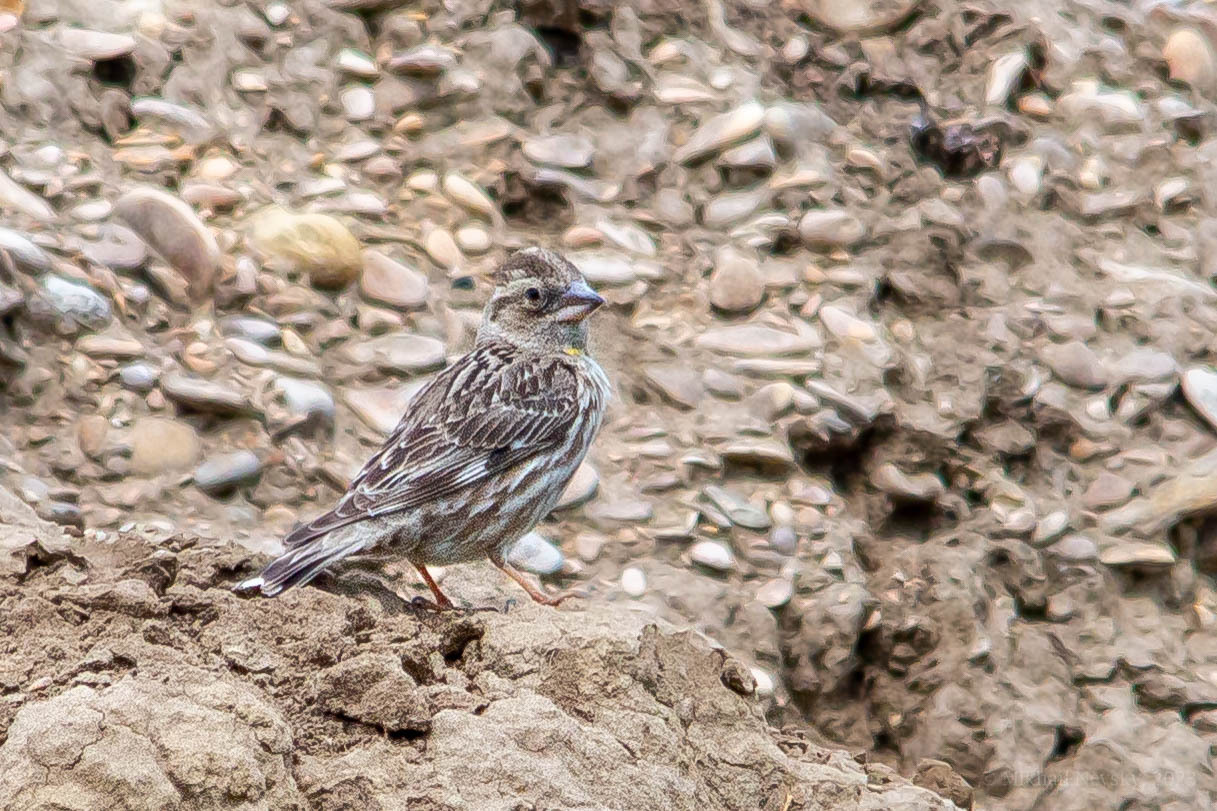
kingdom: Animalia
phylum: Chordata
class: Aves
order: Passeriformes
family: Passeridae
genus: Petronia
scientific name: Petronia petronia
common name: Rock sparrow
